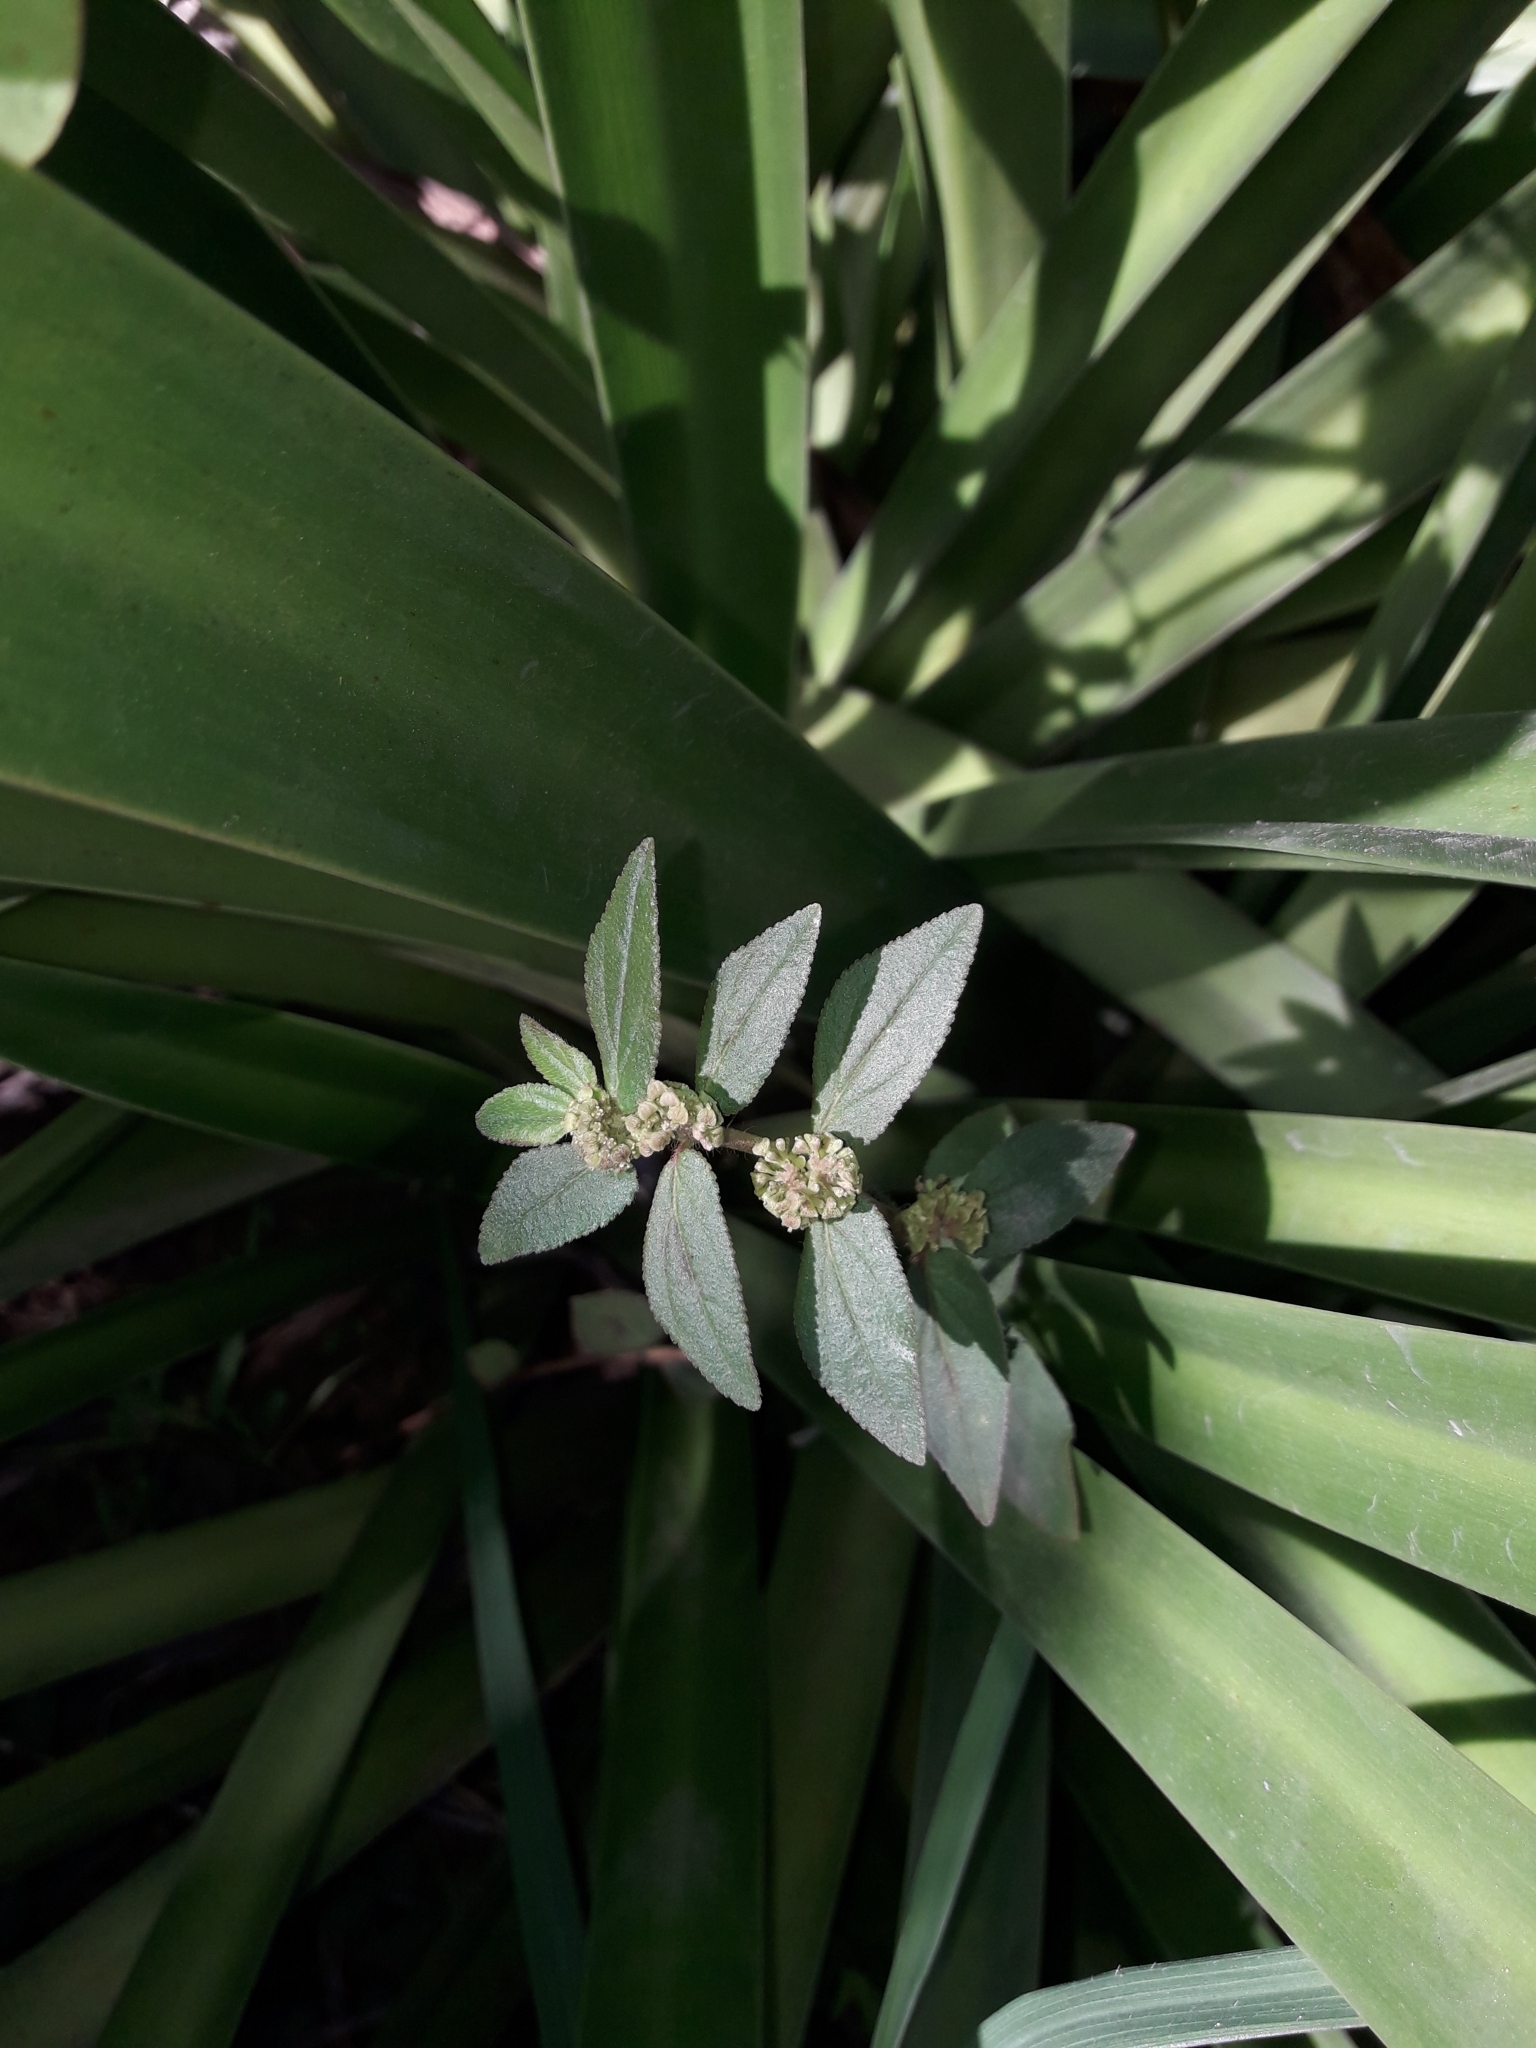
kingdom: Plantae
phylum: Tracheophyta
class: Magnoliopsida
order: Malpighiales
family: Euphorbiaceae
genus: Euphorbia
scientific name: Euphorbia hirta
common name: Pillpod sandmat
